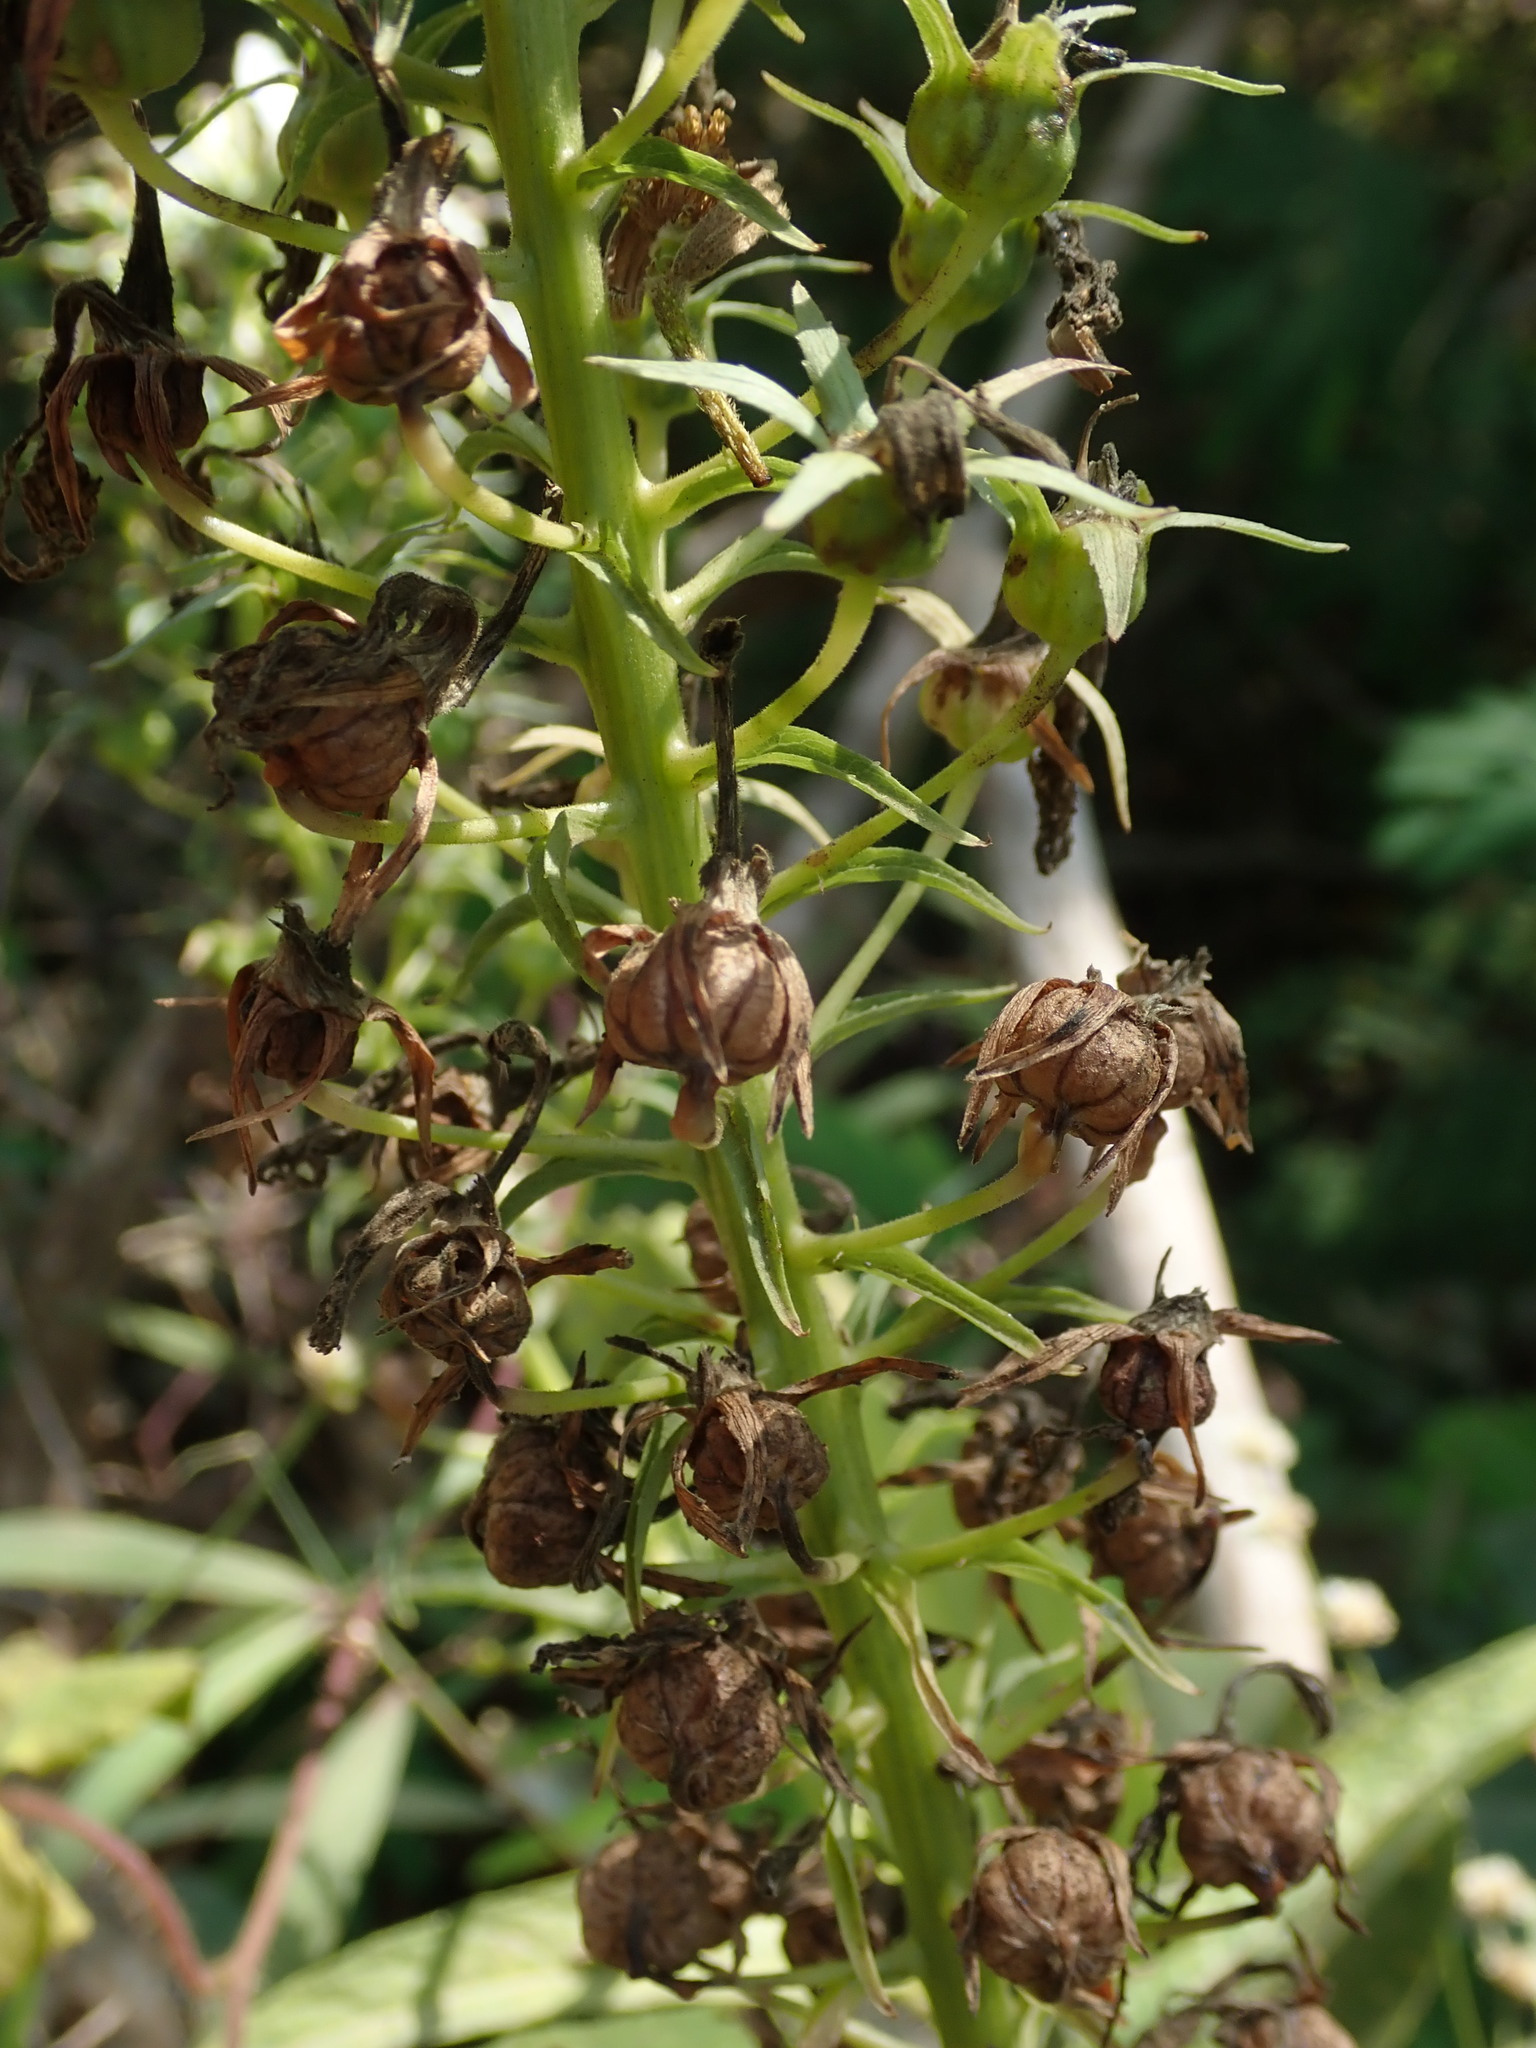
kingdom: Plantae
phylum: Tracheophyta
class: Magnoliopsida
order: Asterales
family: Campanulaceae
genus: Lobelia
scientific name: Lobelia nicotianifolia
